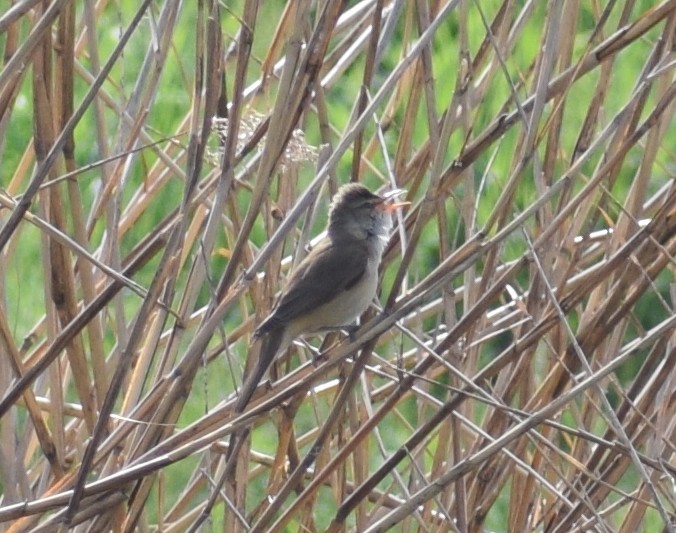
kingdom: Animalia
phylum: Chordata
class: Aves
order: Passeriformes
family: Acrocephalidae
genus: Acrocephalus
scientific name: Acrocephalus scirpaceus
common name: Eurasian reed warbler
